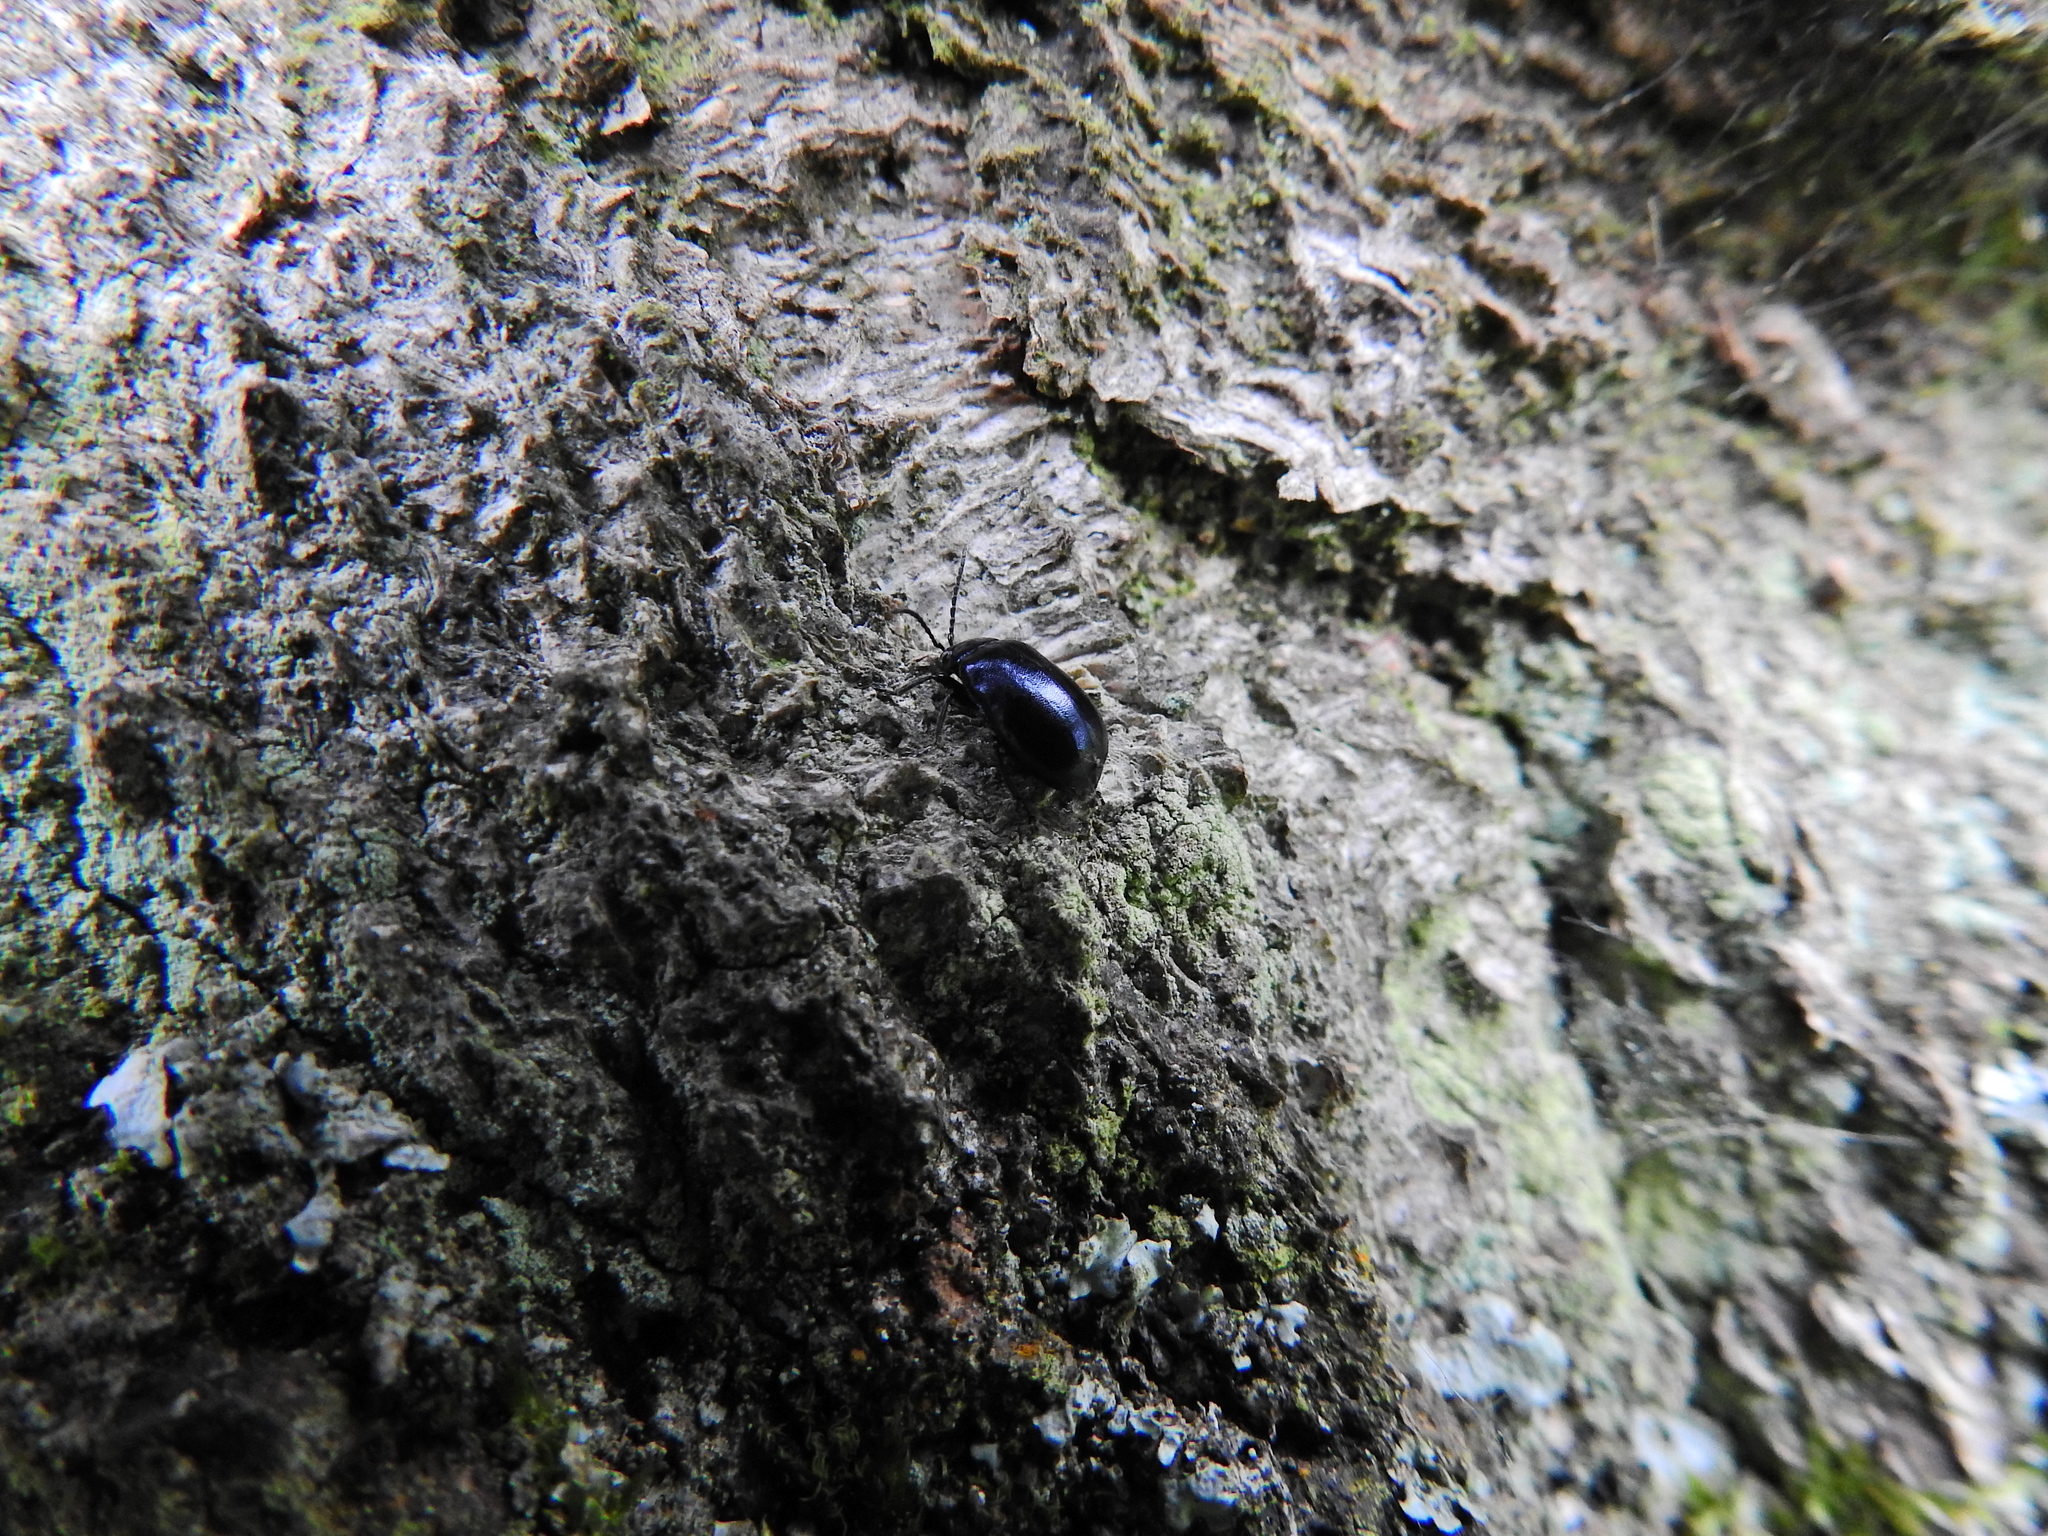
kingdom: Animalia
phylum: Arthropoda
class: Insecta
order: Coleoptera
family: Chrysomelidae
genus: Agelastica
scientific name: Agelastica alni
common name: Alder leaf beetle
